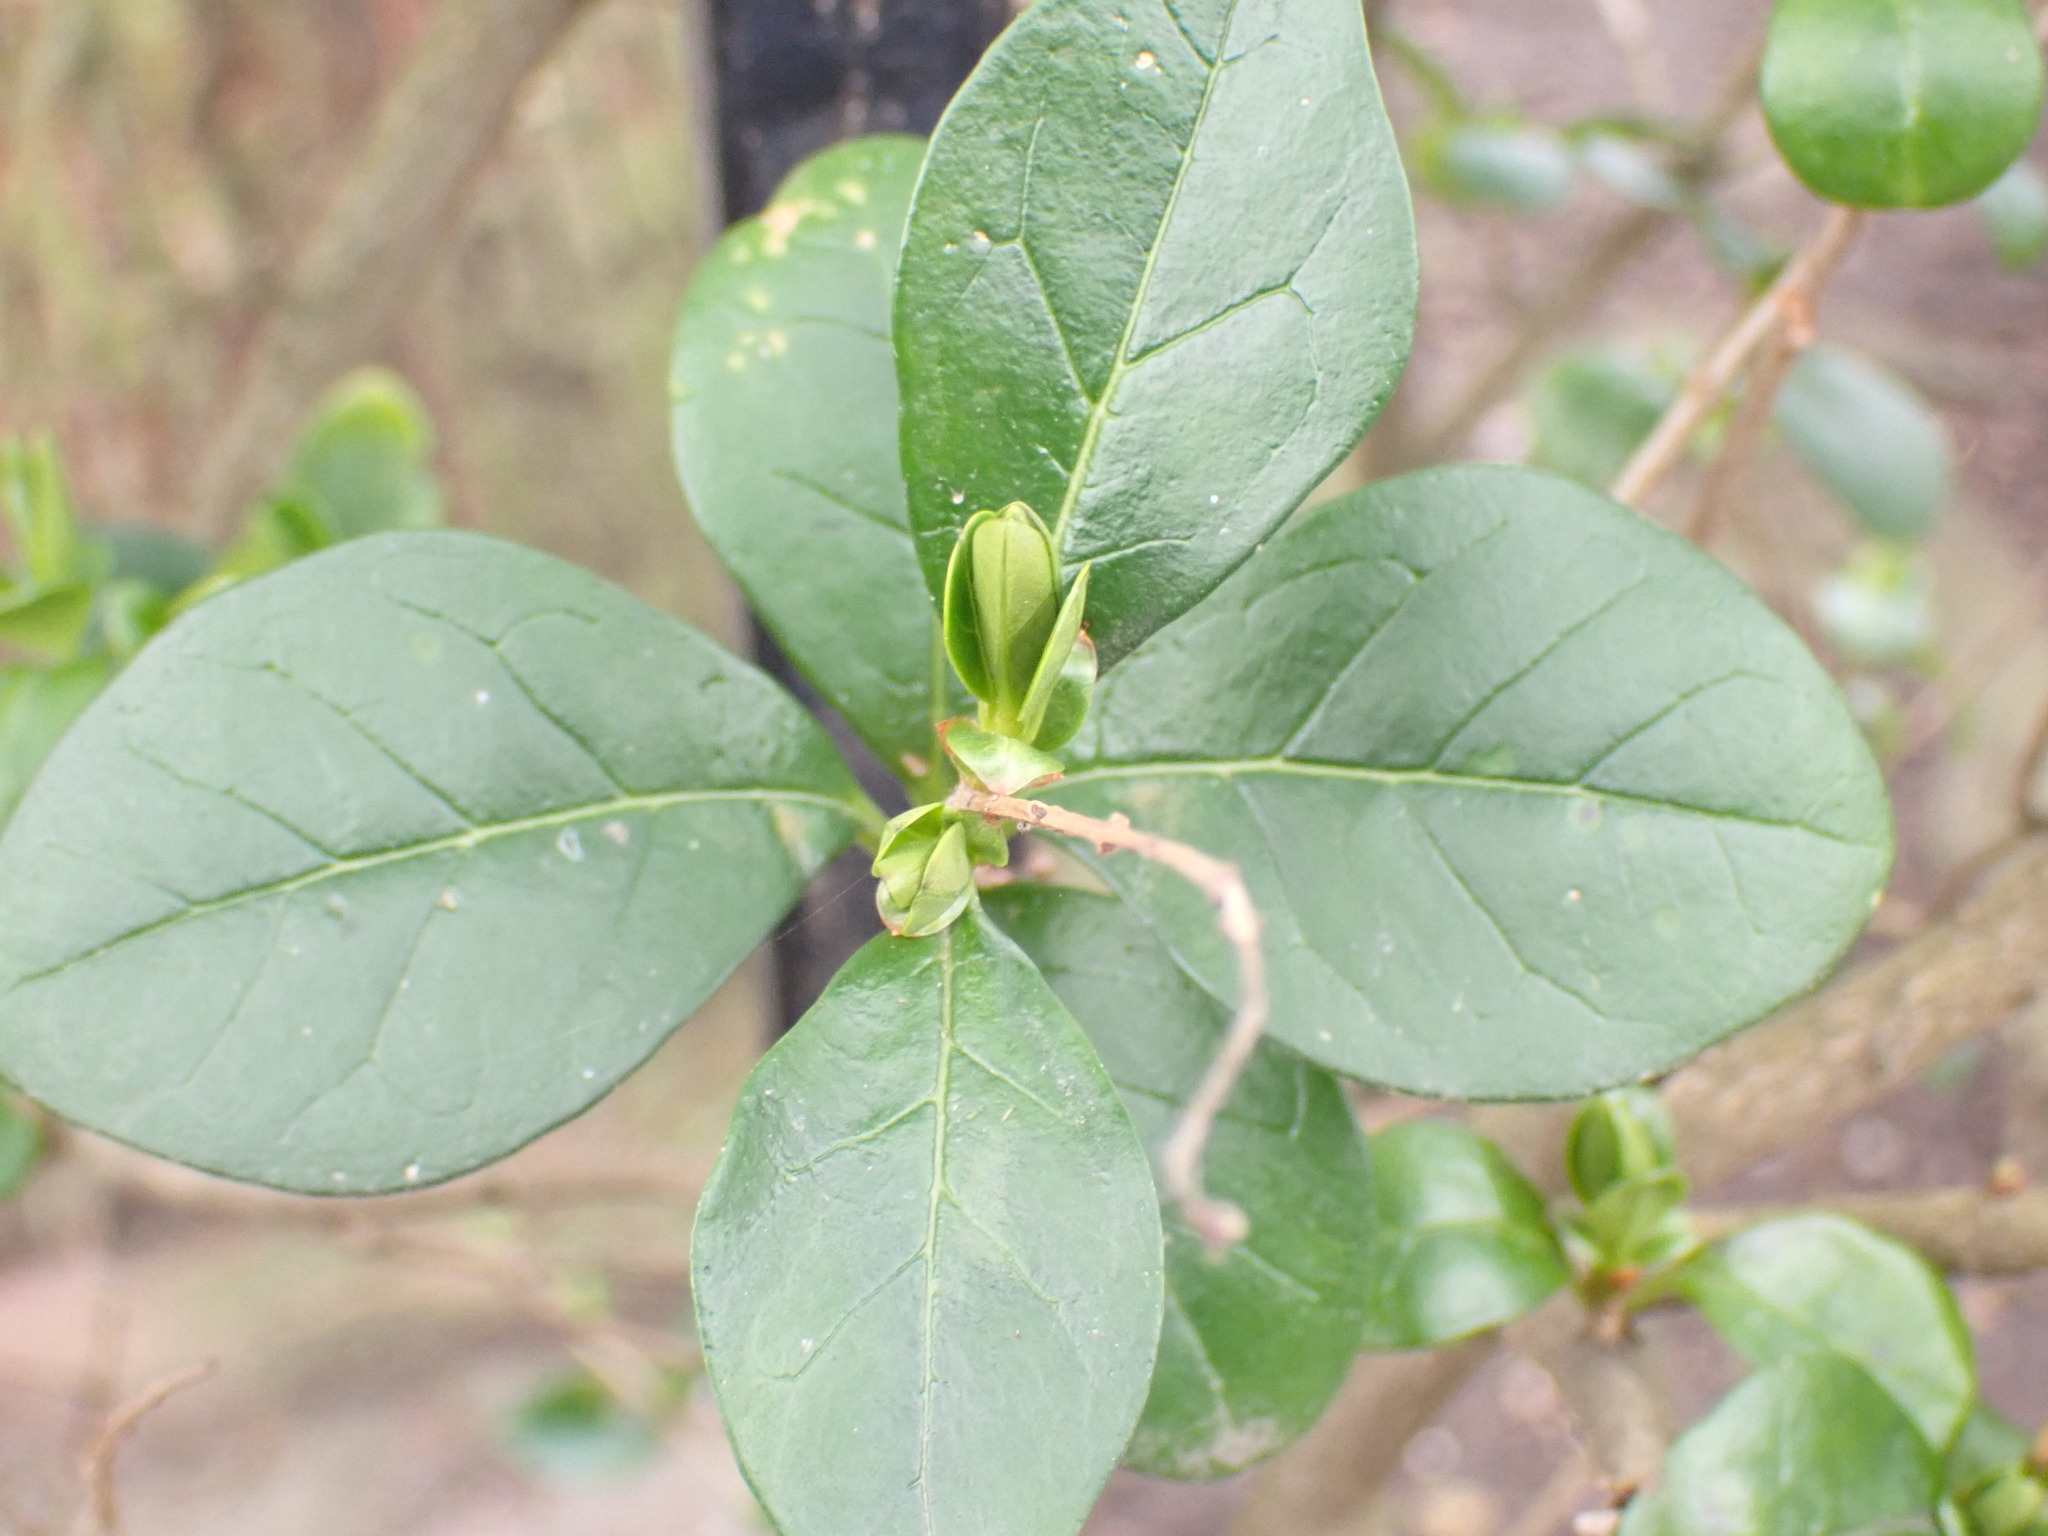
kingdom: Plantae
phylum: Tracheophyta
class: Magnoliopsida
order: Lamiales
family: Oleaceae
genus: Ligustrum
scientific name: Ligustrum ovalifolium
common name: California privet
